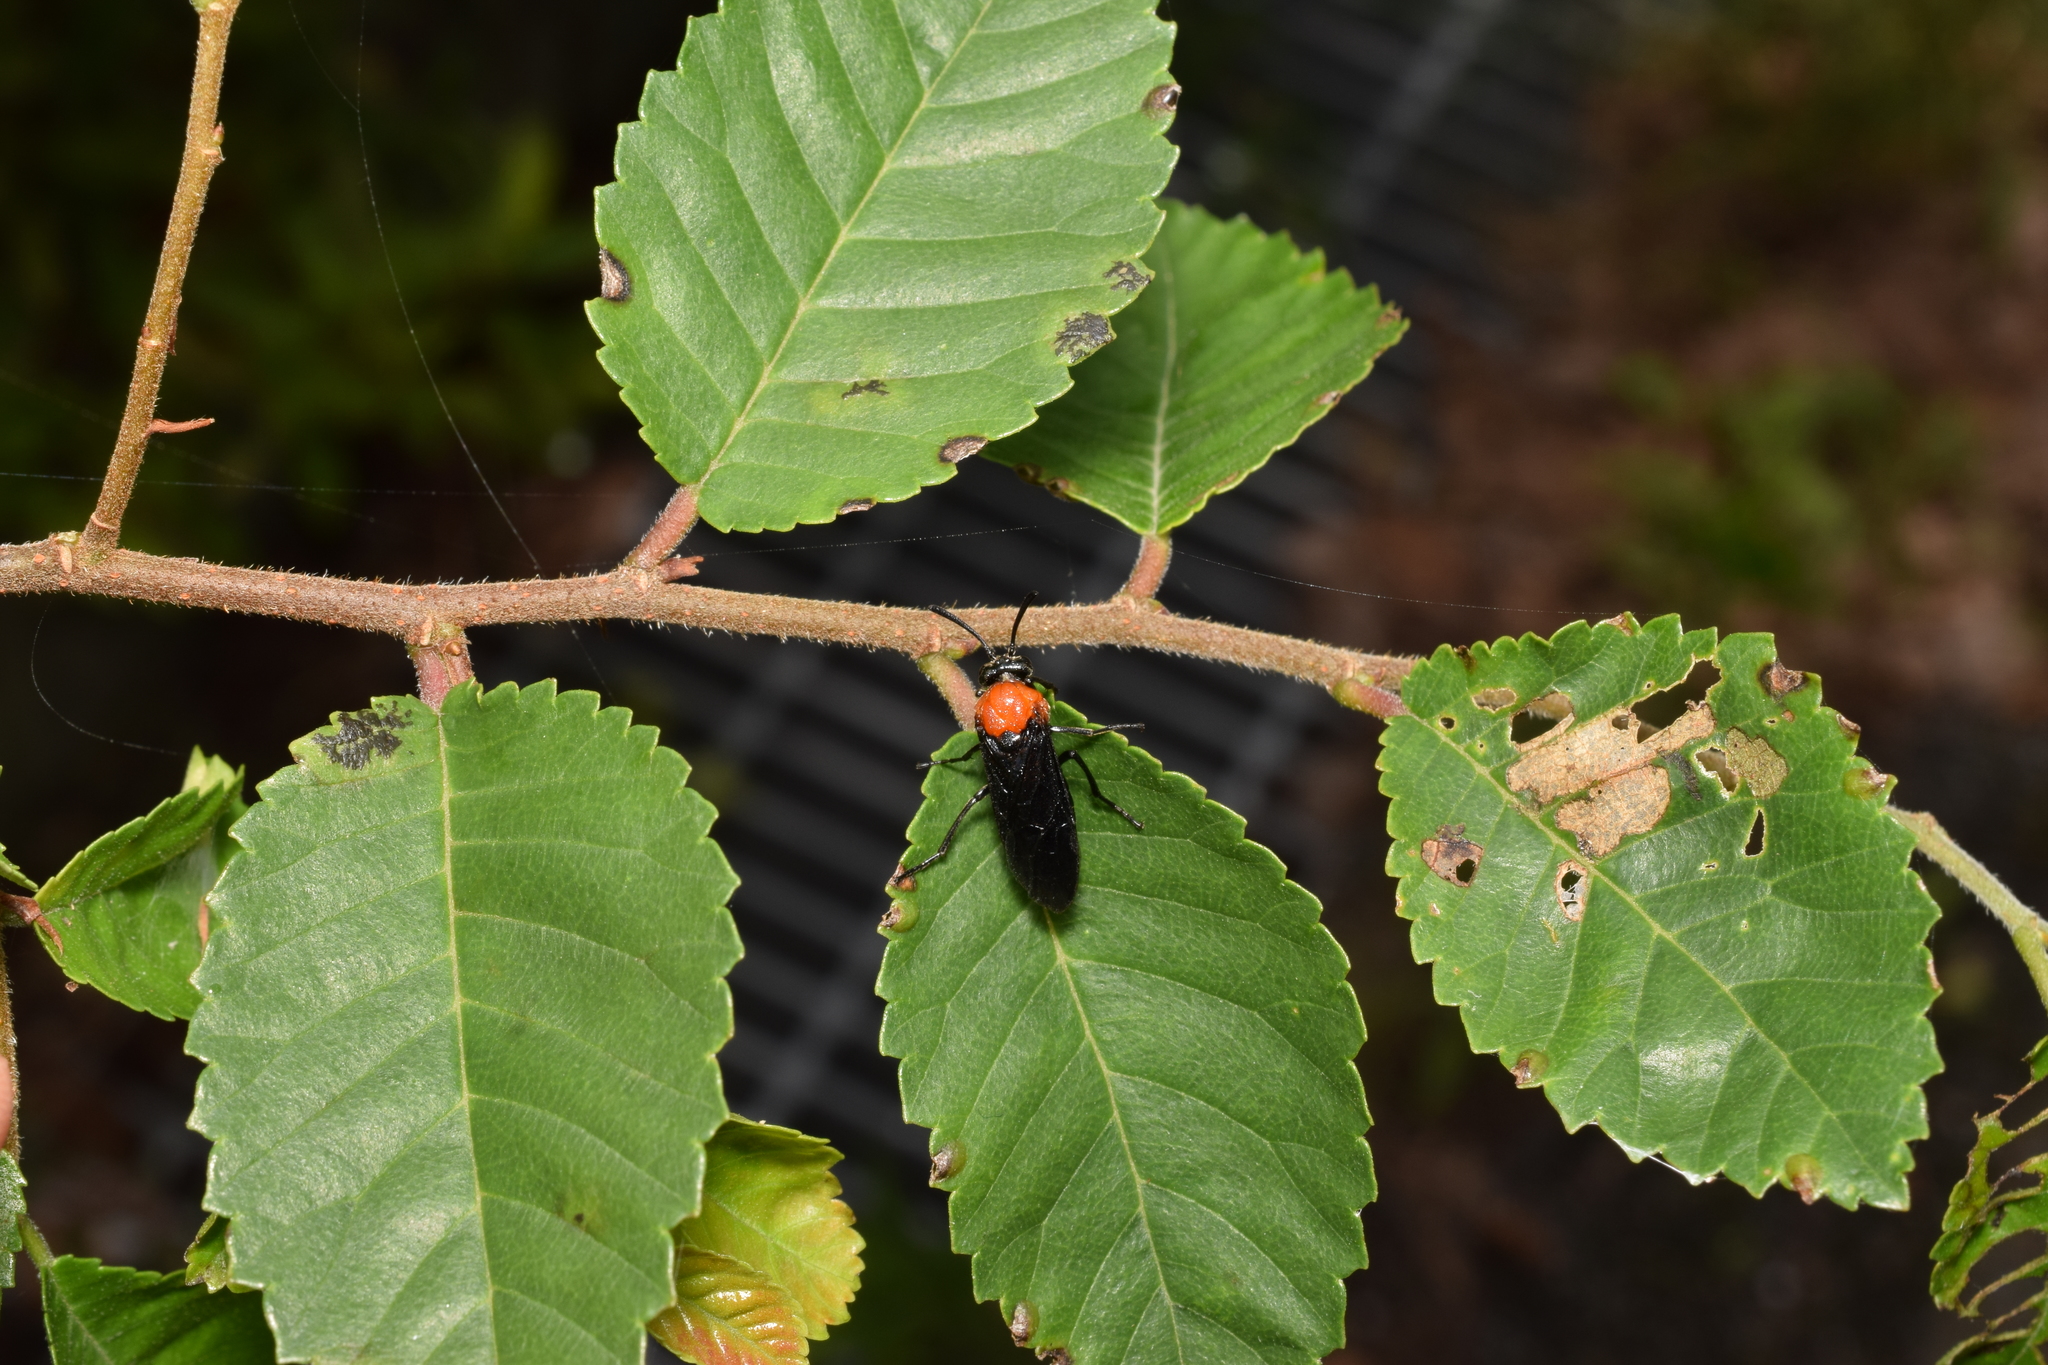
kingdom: Animalia
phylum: Arthropoda
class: Insecta
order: Hymenoptera
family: Argidae
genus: Arge
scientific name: Arge captiva
